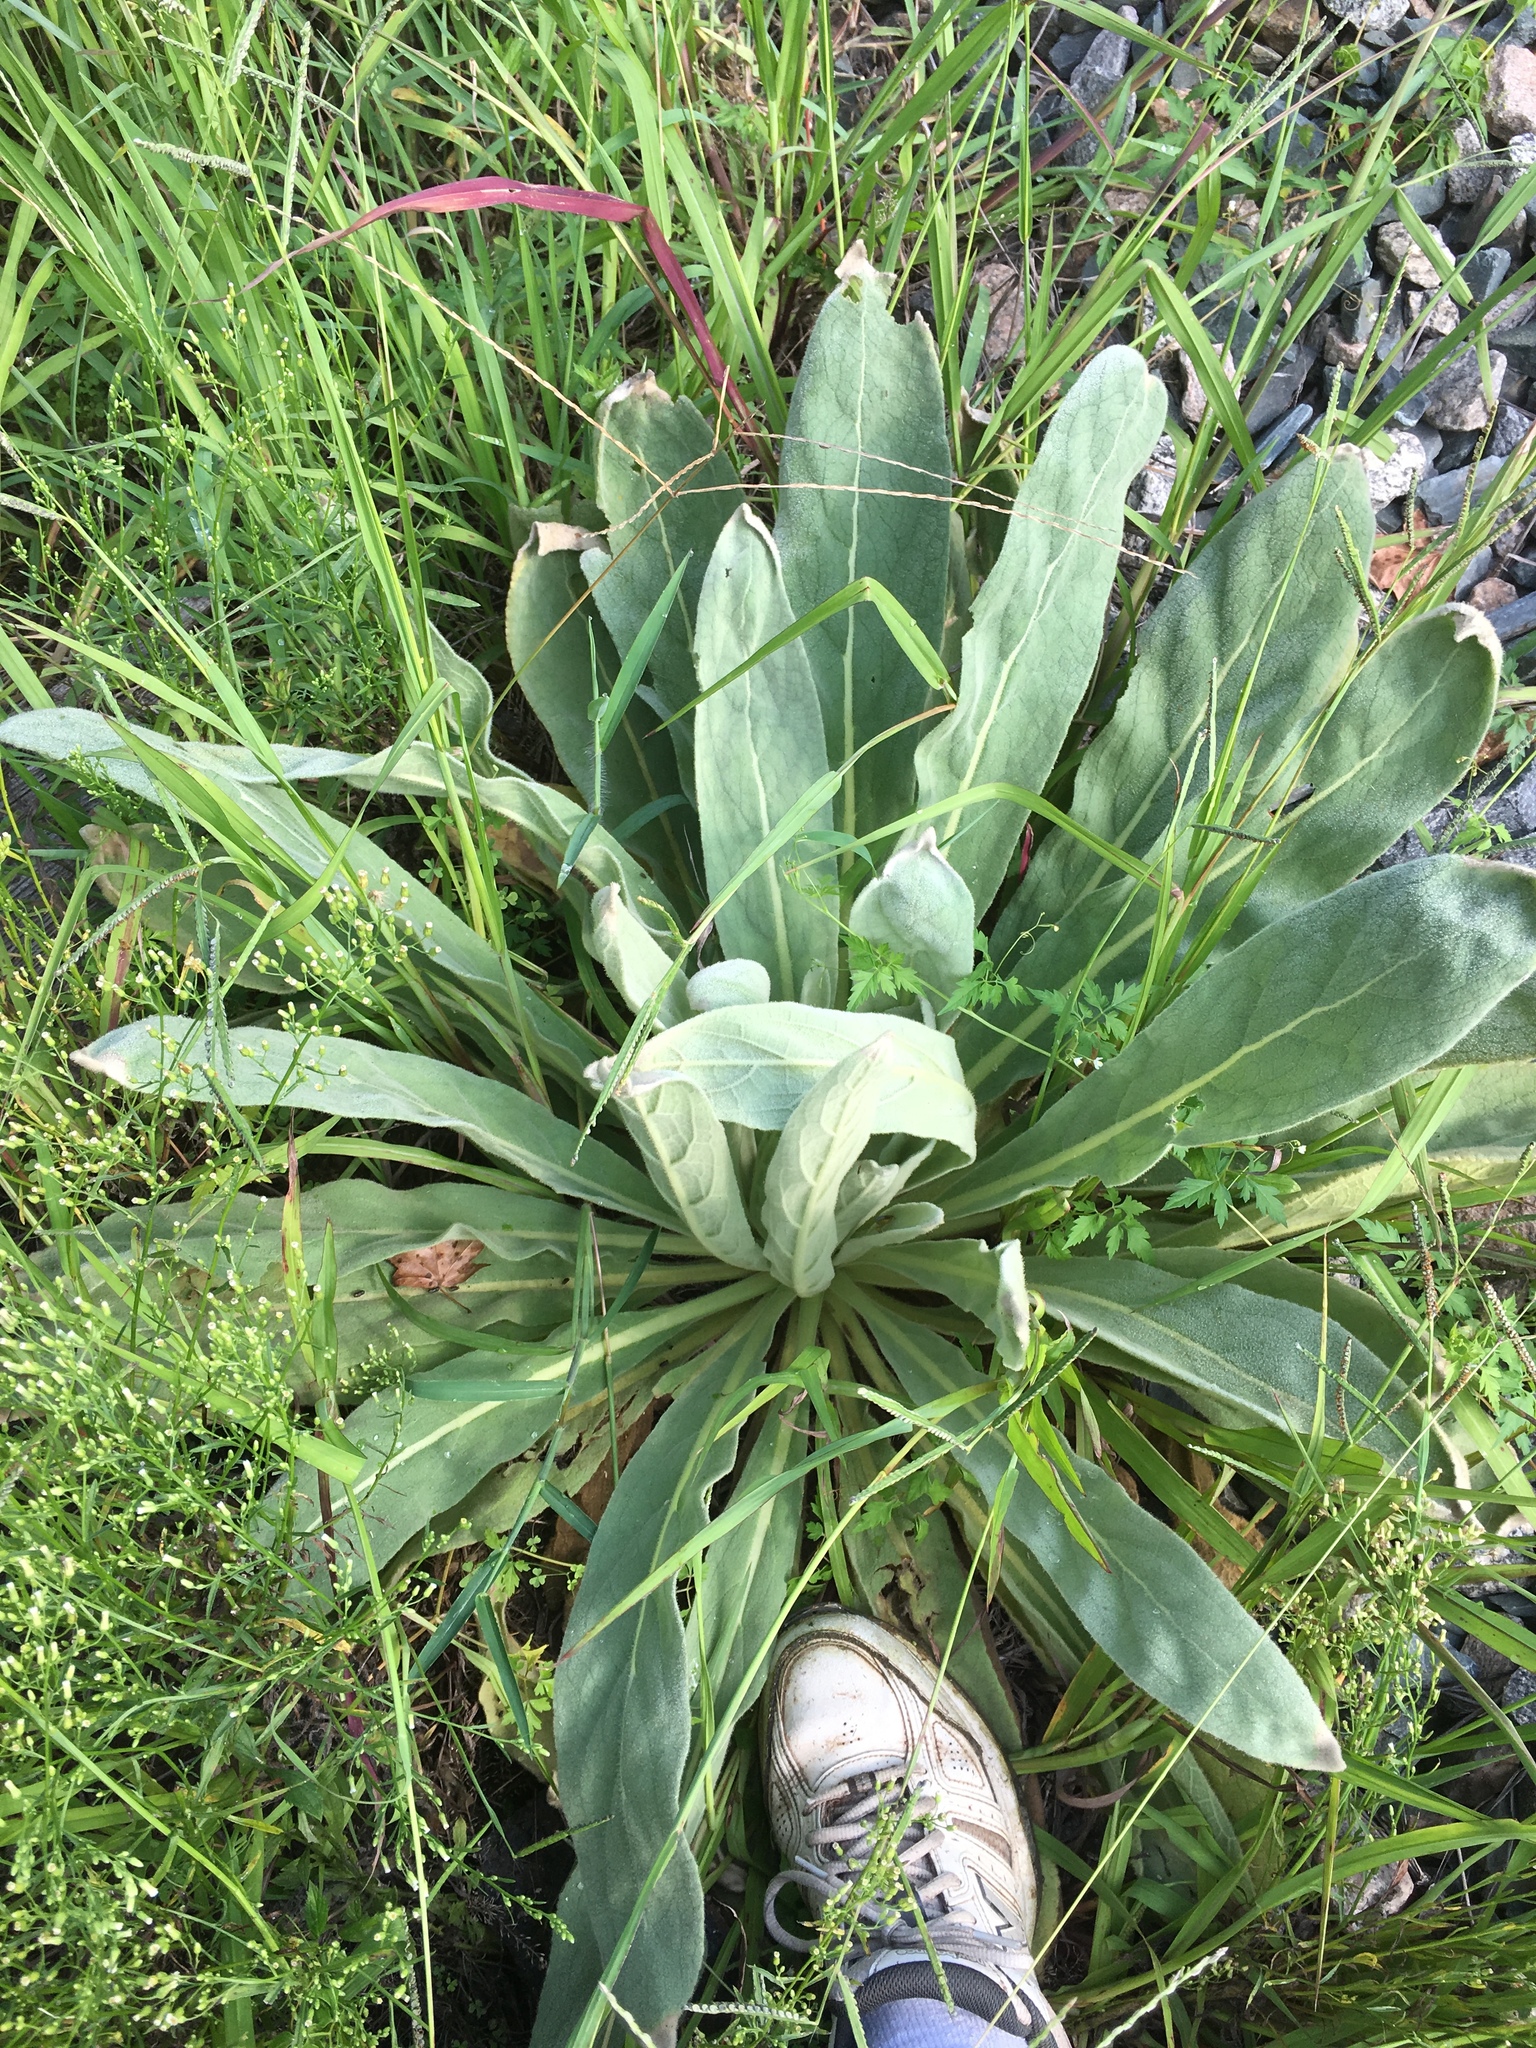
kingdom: Plantae
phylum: Tracheophyta
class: Magnoliopsida
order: Lamiales
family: Scrophulariaceae
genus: Verbascum
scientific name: Verbascum thapsus
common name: Common mullein
